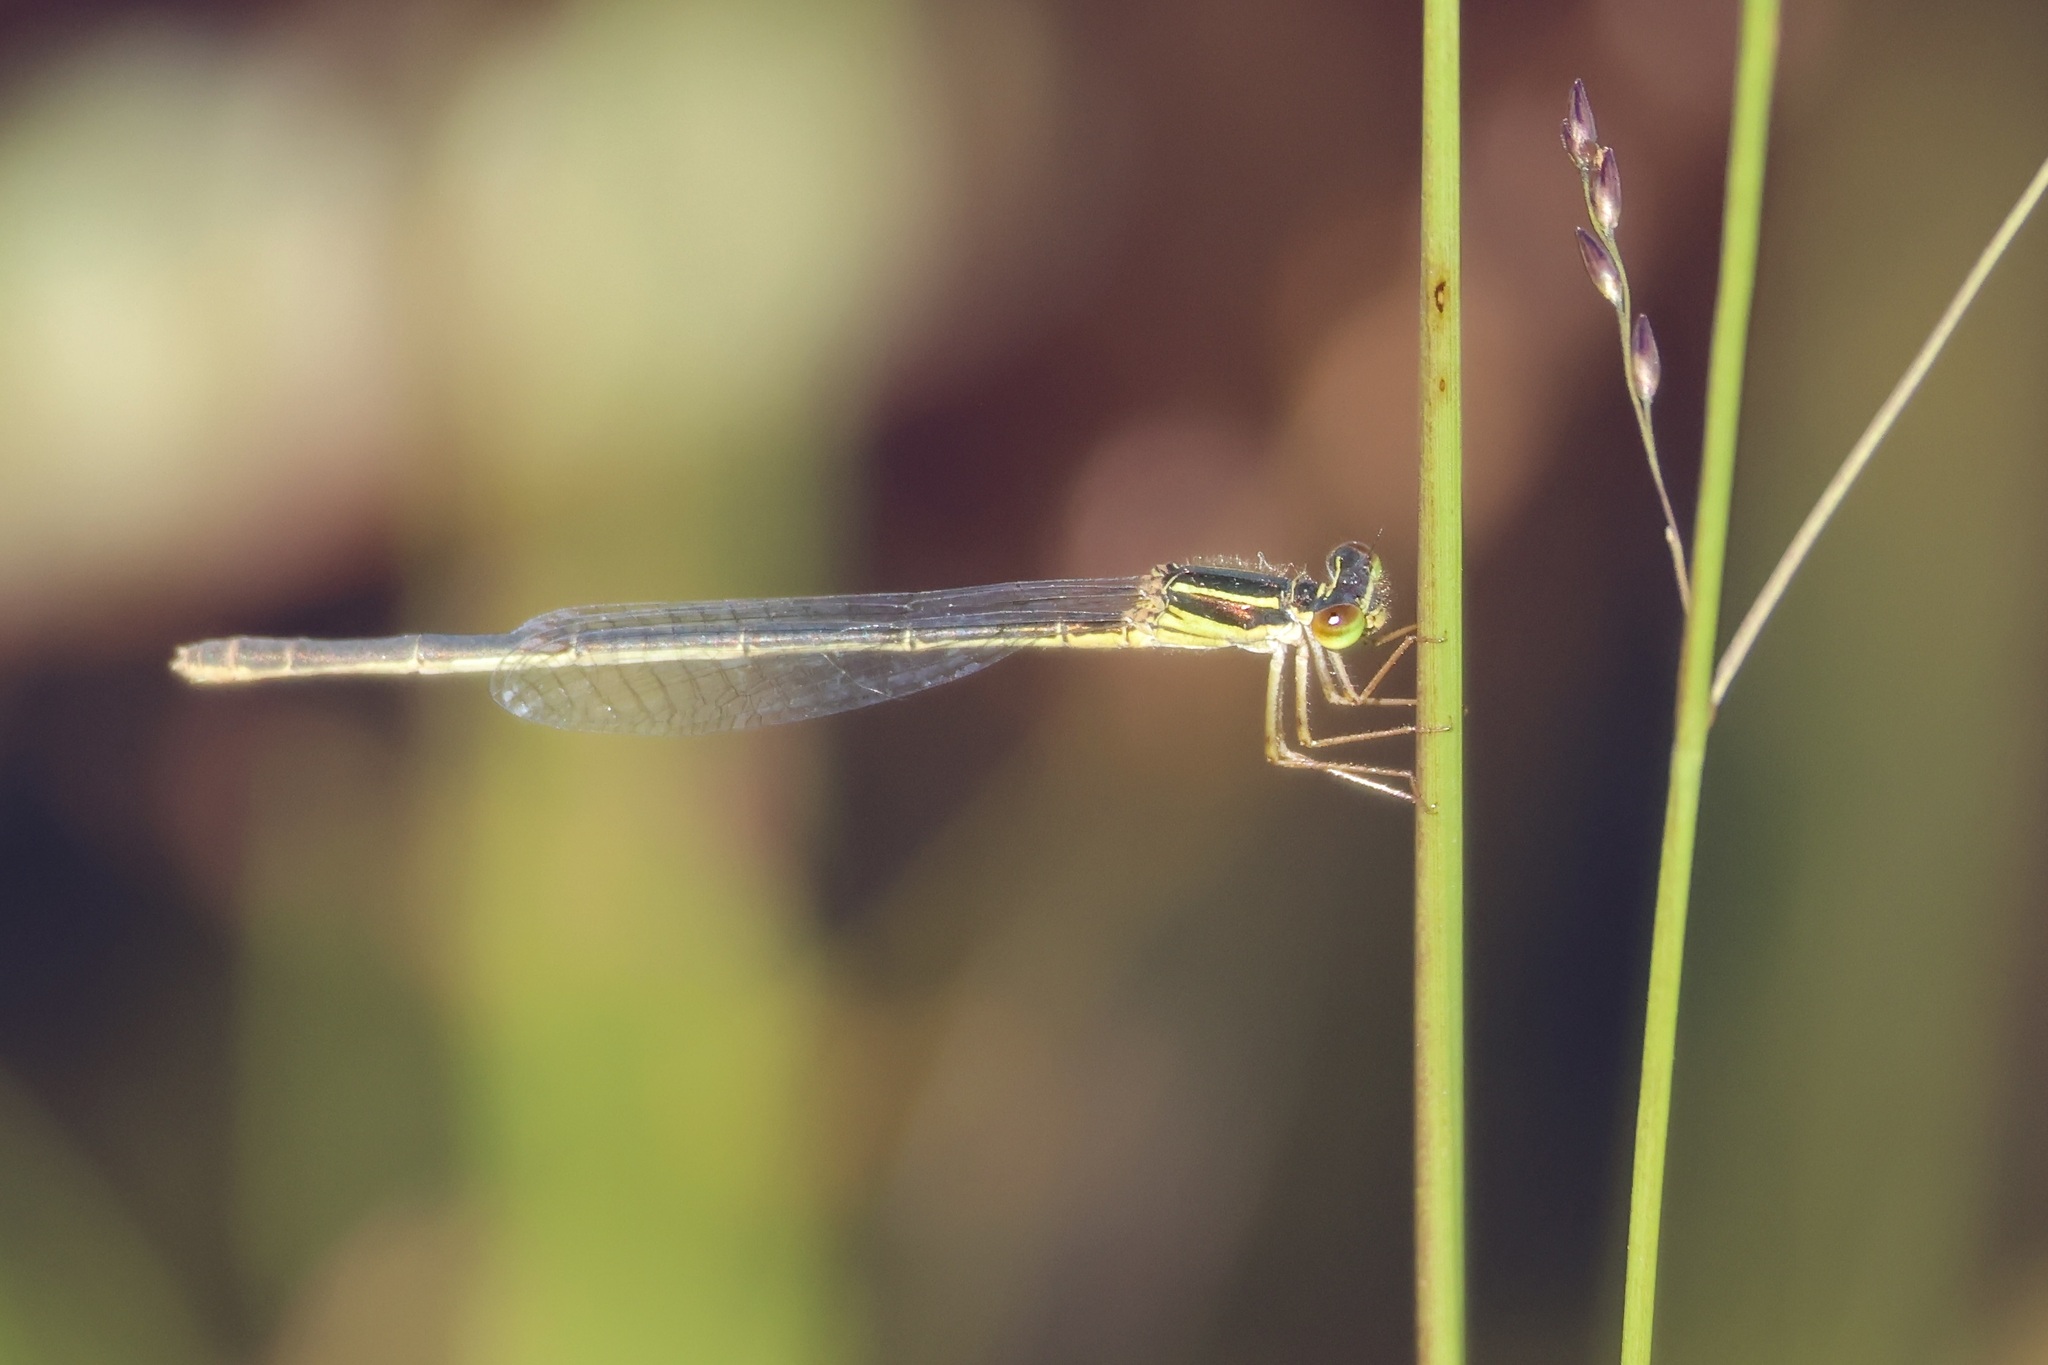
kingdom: Animalia
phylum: Arthropoda
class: Insecta
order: Odonata
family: Coenagrionidae
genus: Enallagma
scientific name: Enallagma pictum
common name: Scarlet bluet
